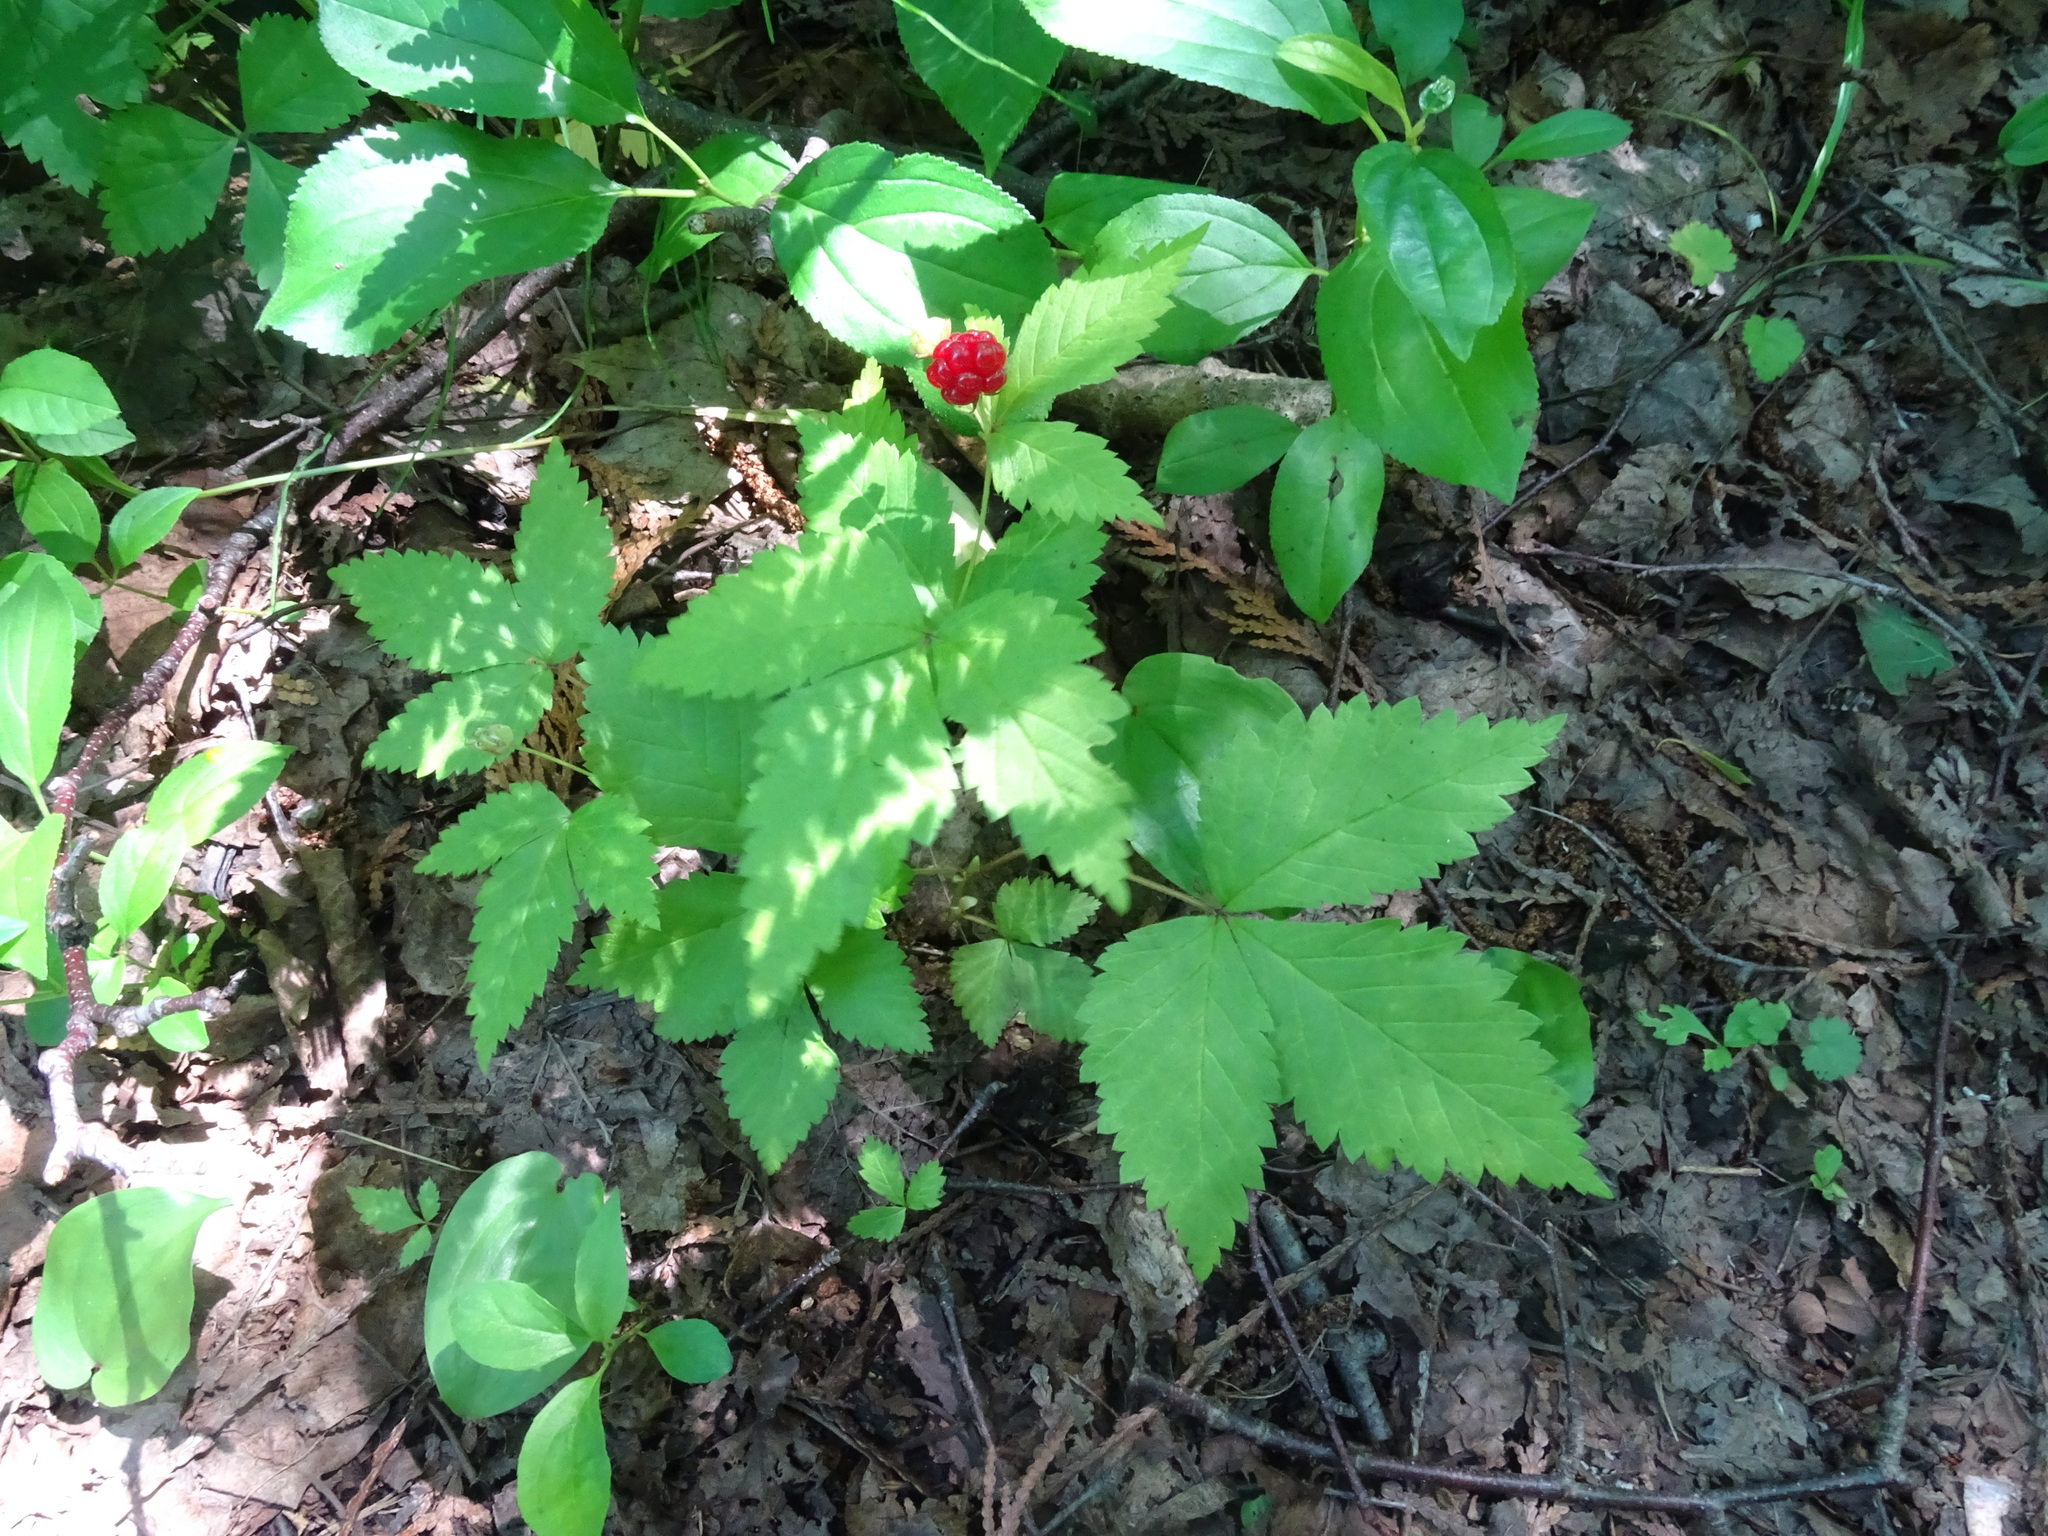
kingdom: Plantae
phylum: Tracheophyta
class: Magnoliopsida
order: Rosales
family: Rosaceae
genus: Rubus
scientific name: Rubus pubescens
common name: Dwarf raspberry
